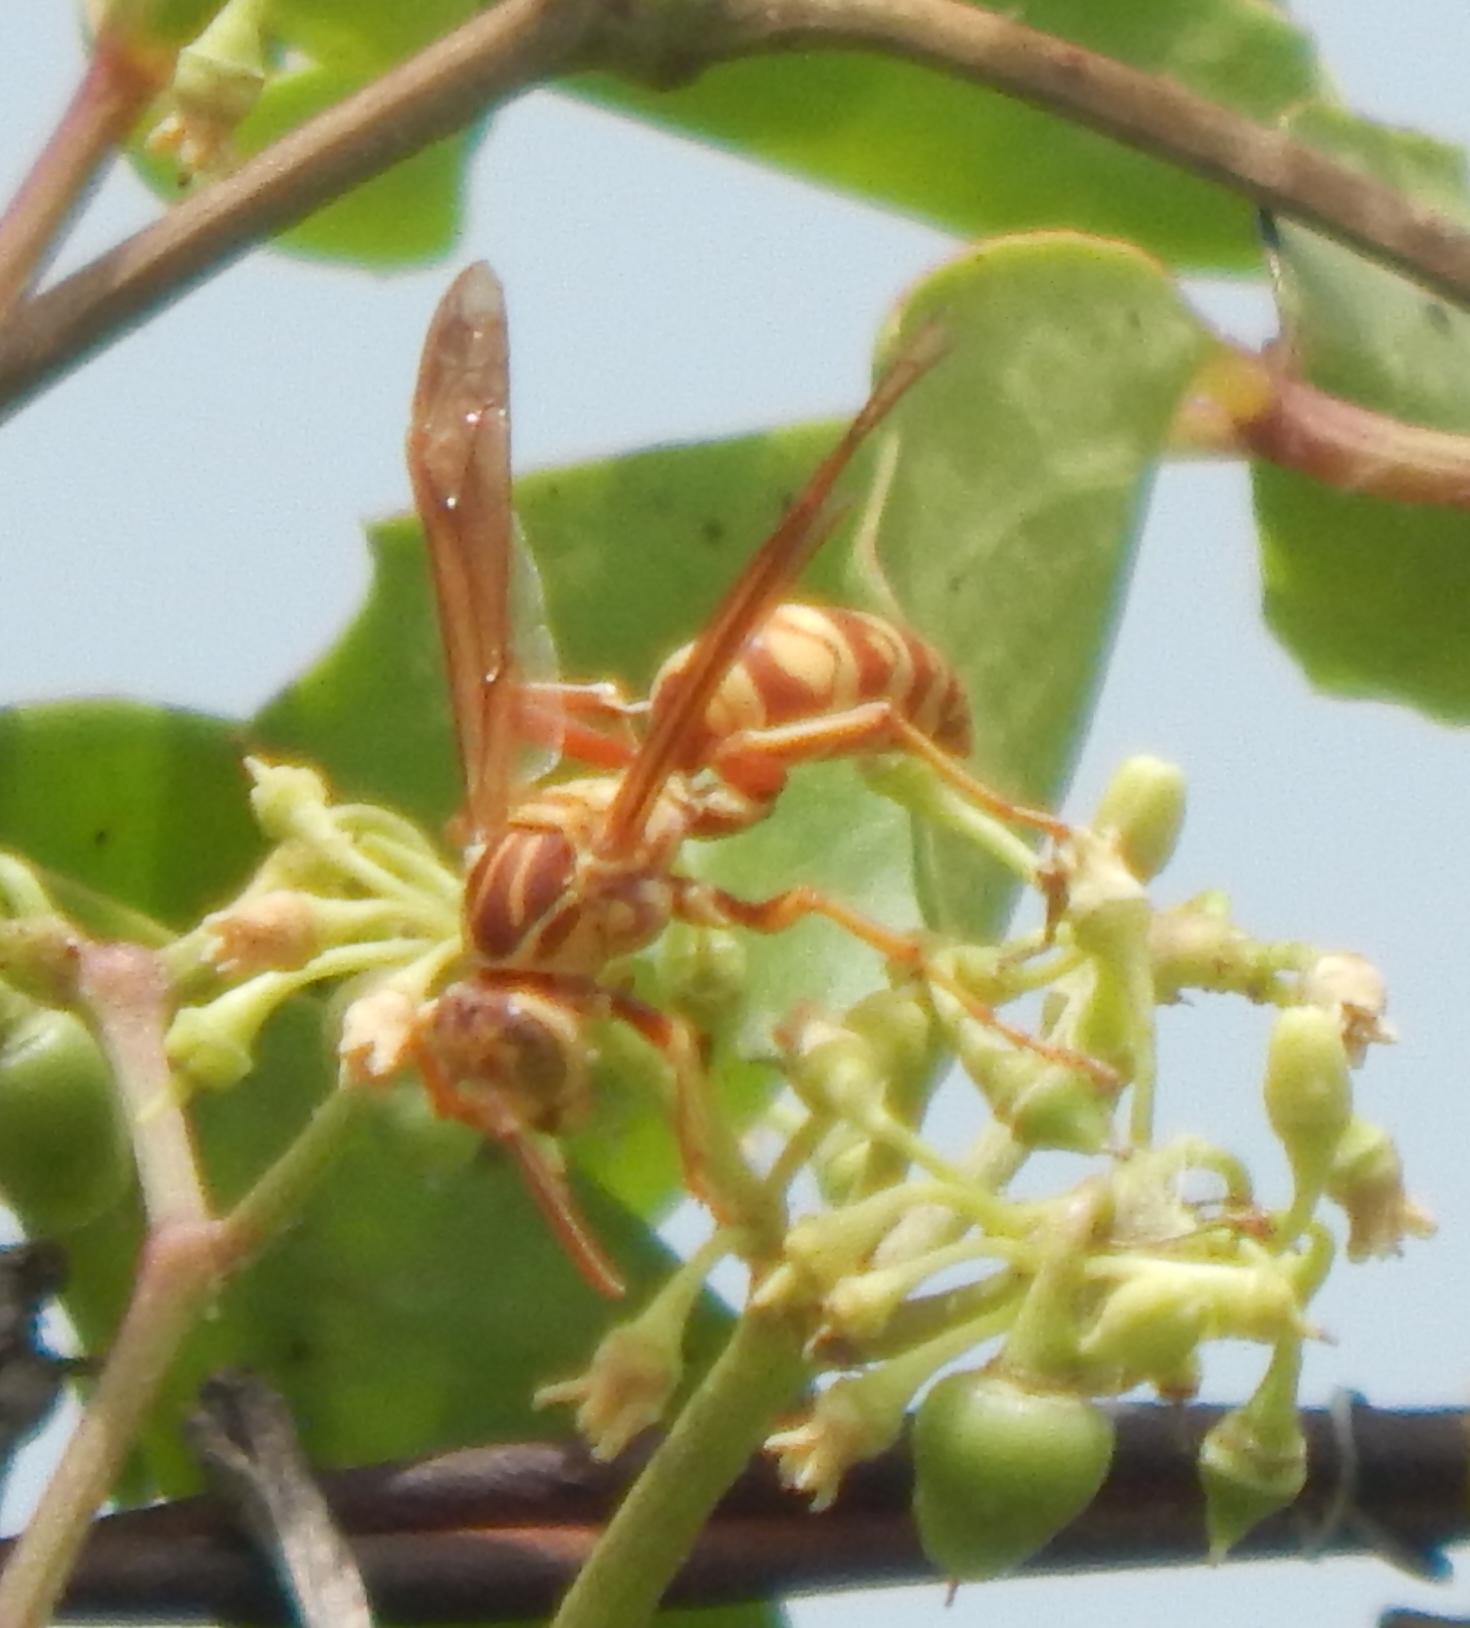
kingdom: Animalia
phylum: Arthropoda
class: Insecta
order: Hymenoptera
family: Eumenidae
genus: Polistes
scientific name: Polistes apachus
